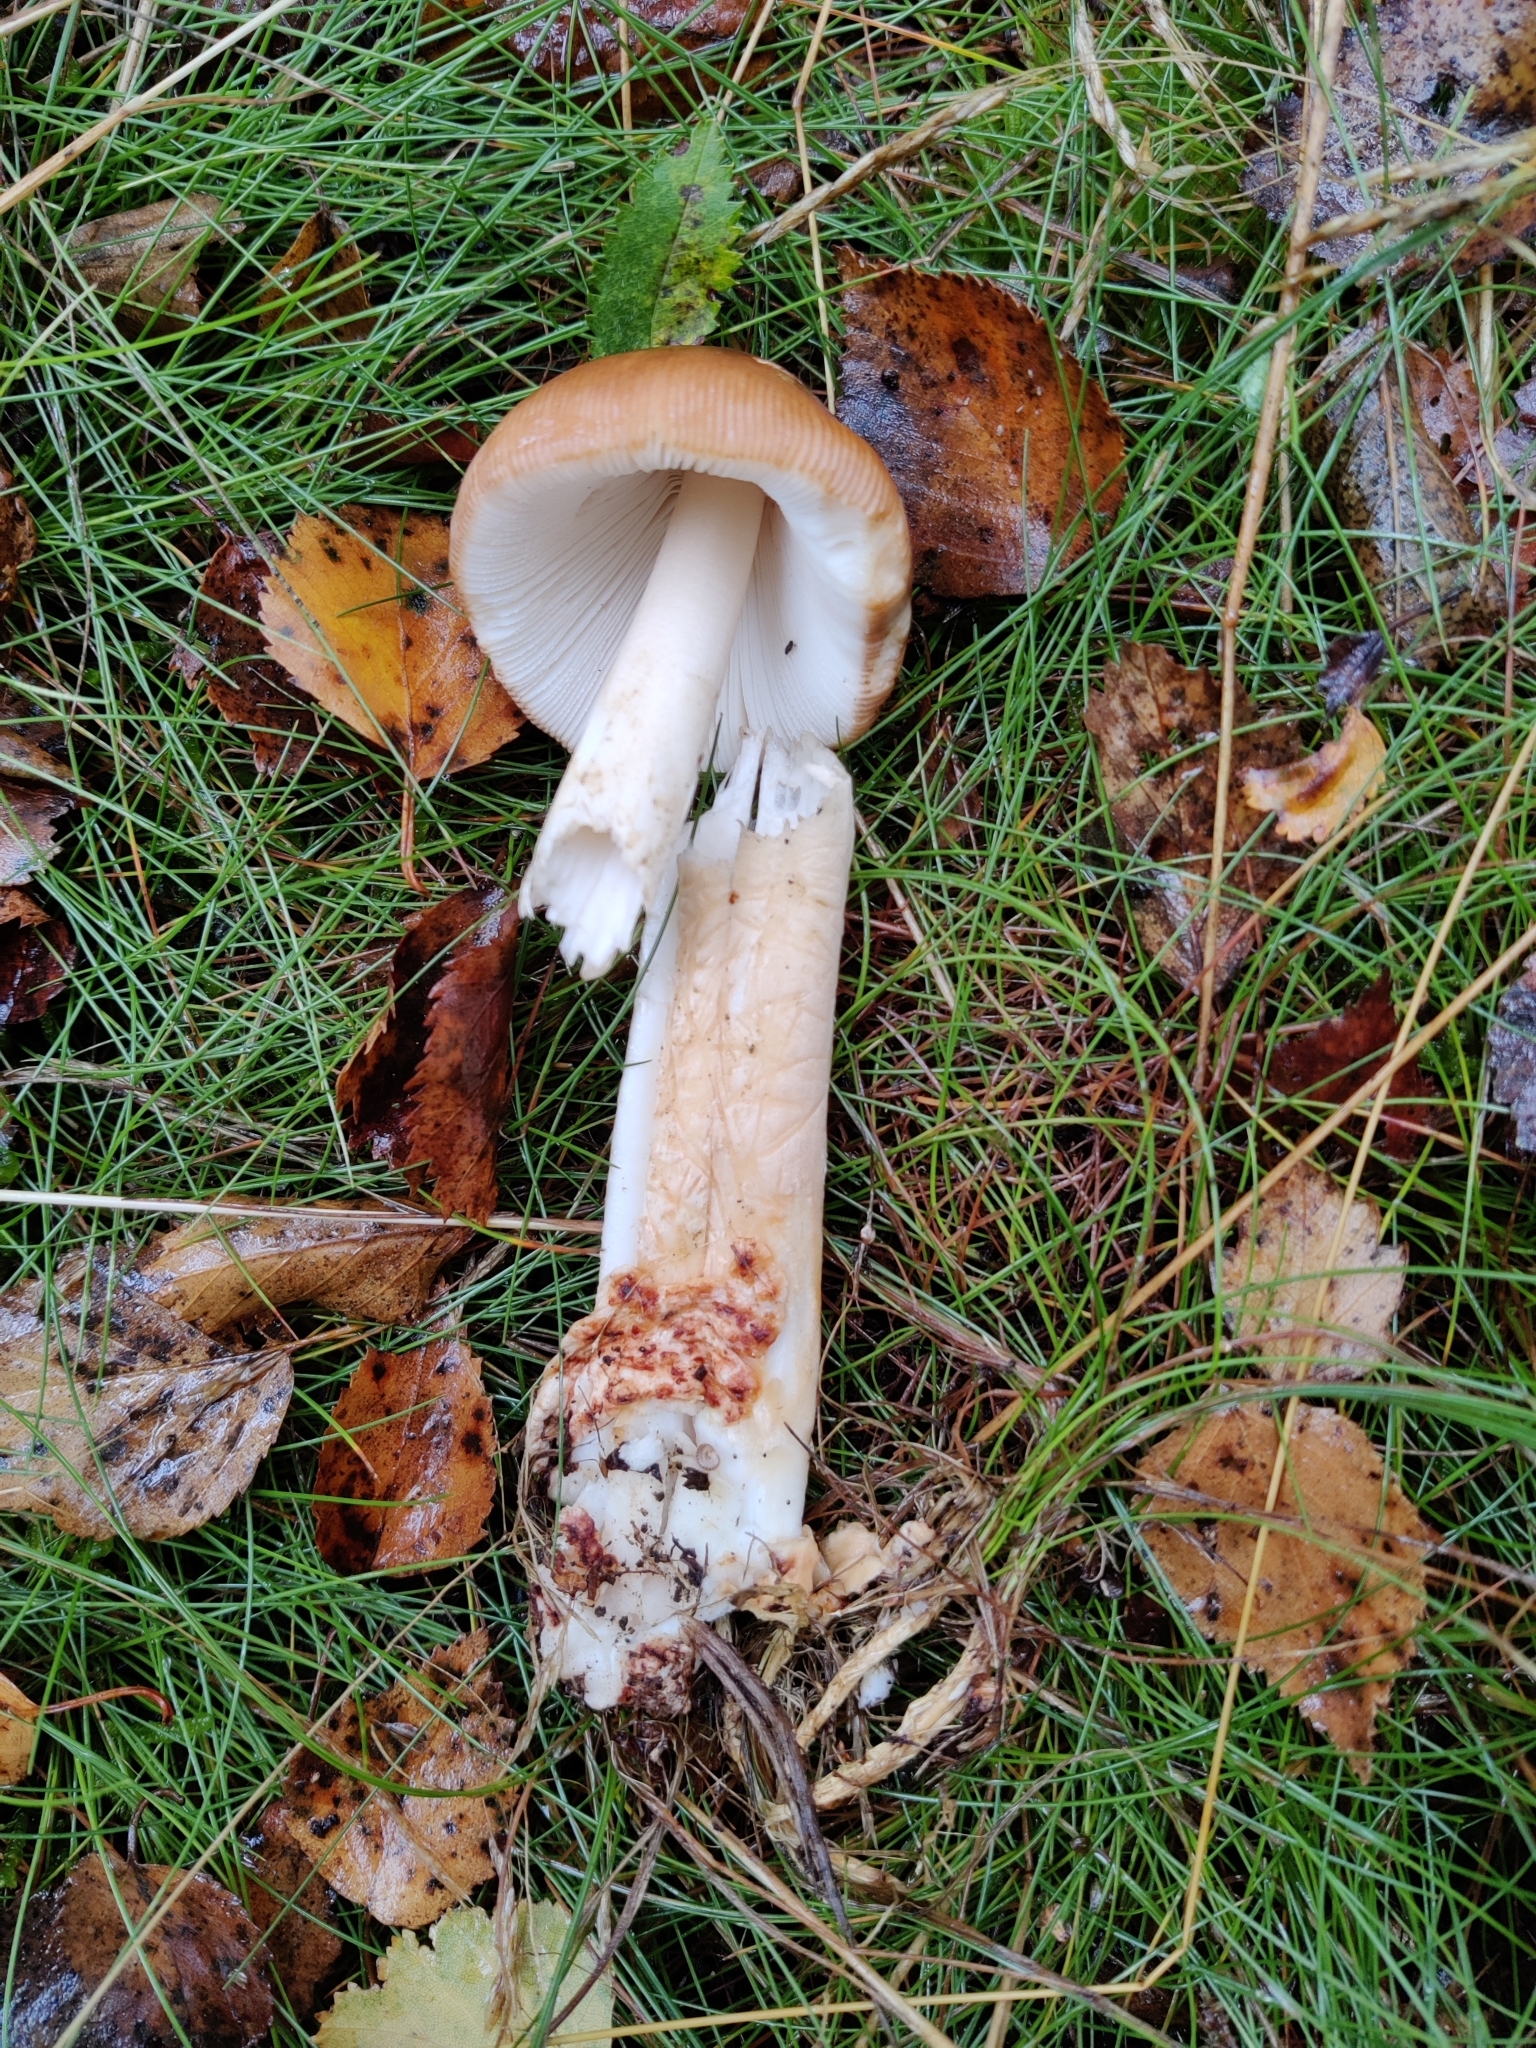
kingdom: Fungi
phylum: Basidiomycota
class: Agaricomycetes
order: Agaricales
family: Amanitaceae
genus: Amanita
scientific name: Amanita fulva
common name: Tawny grisette
